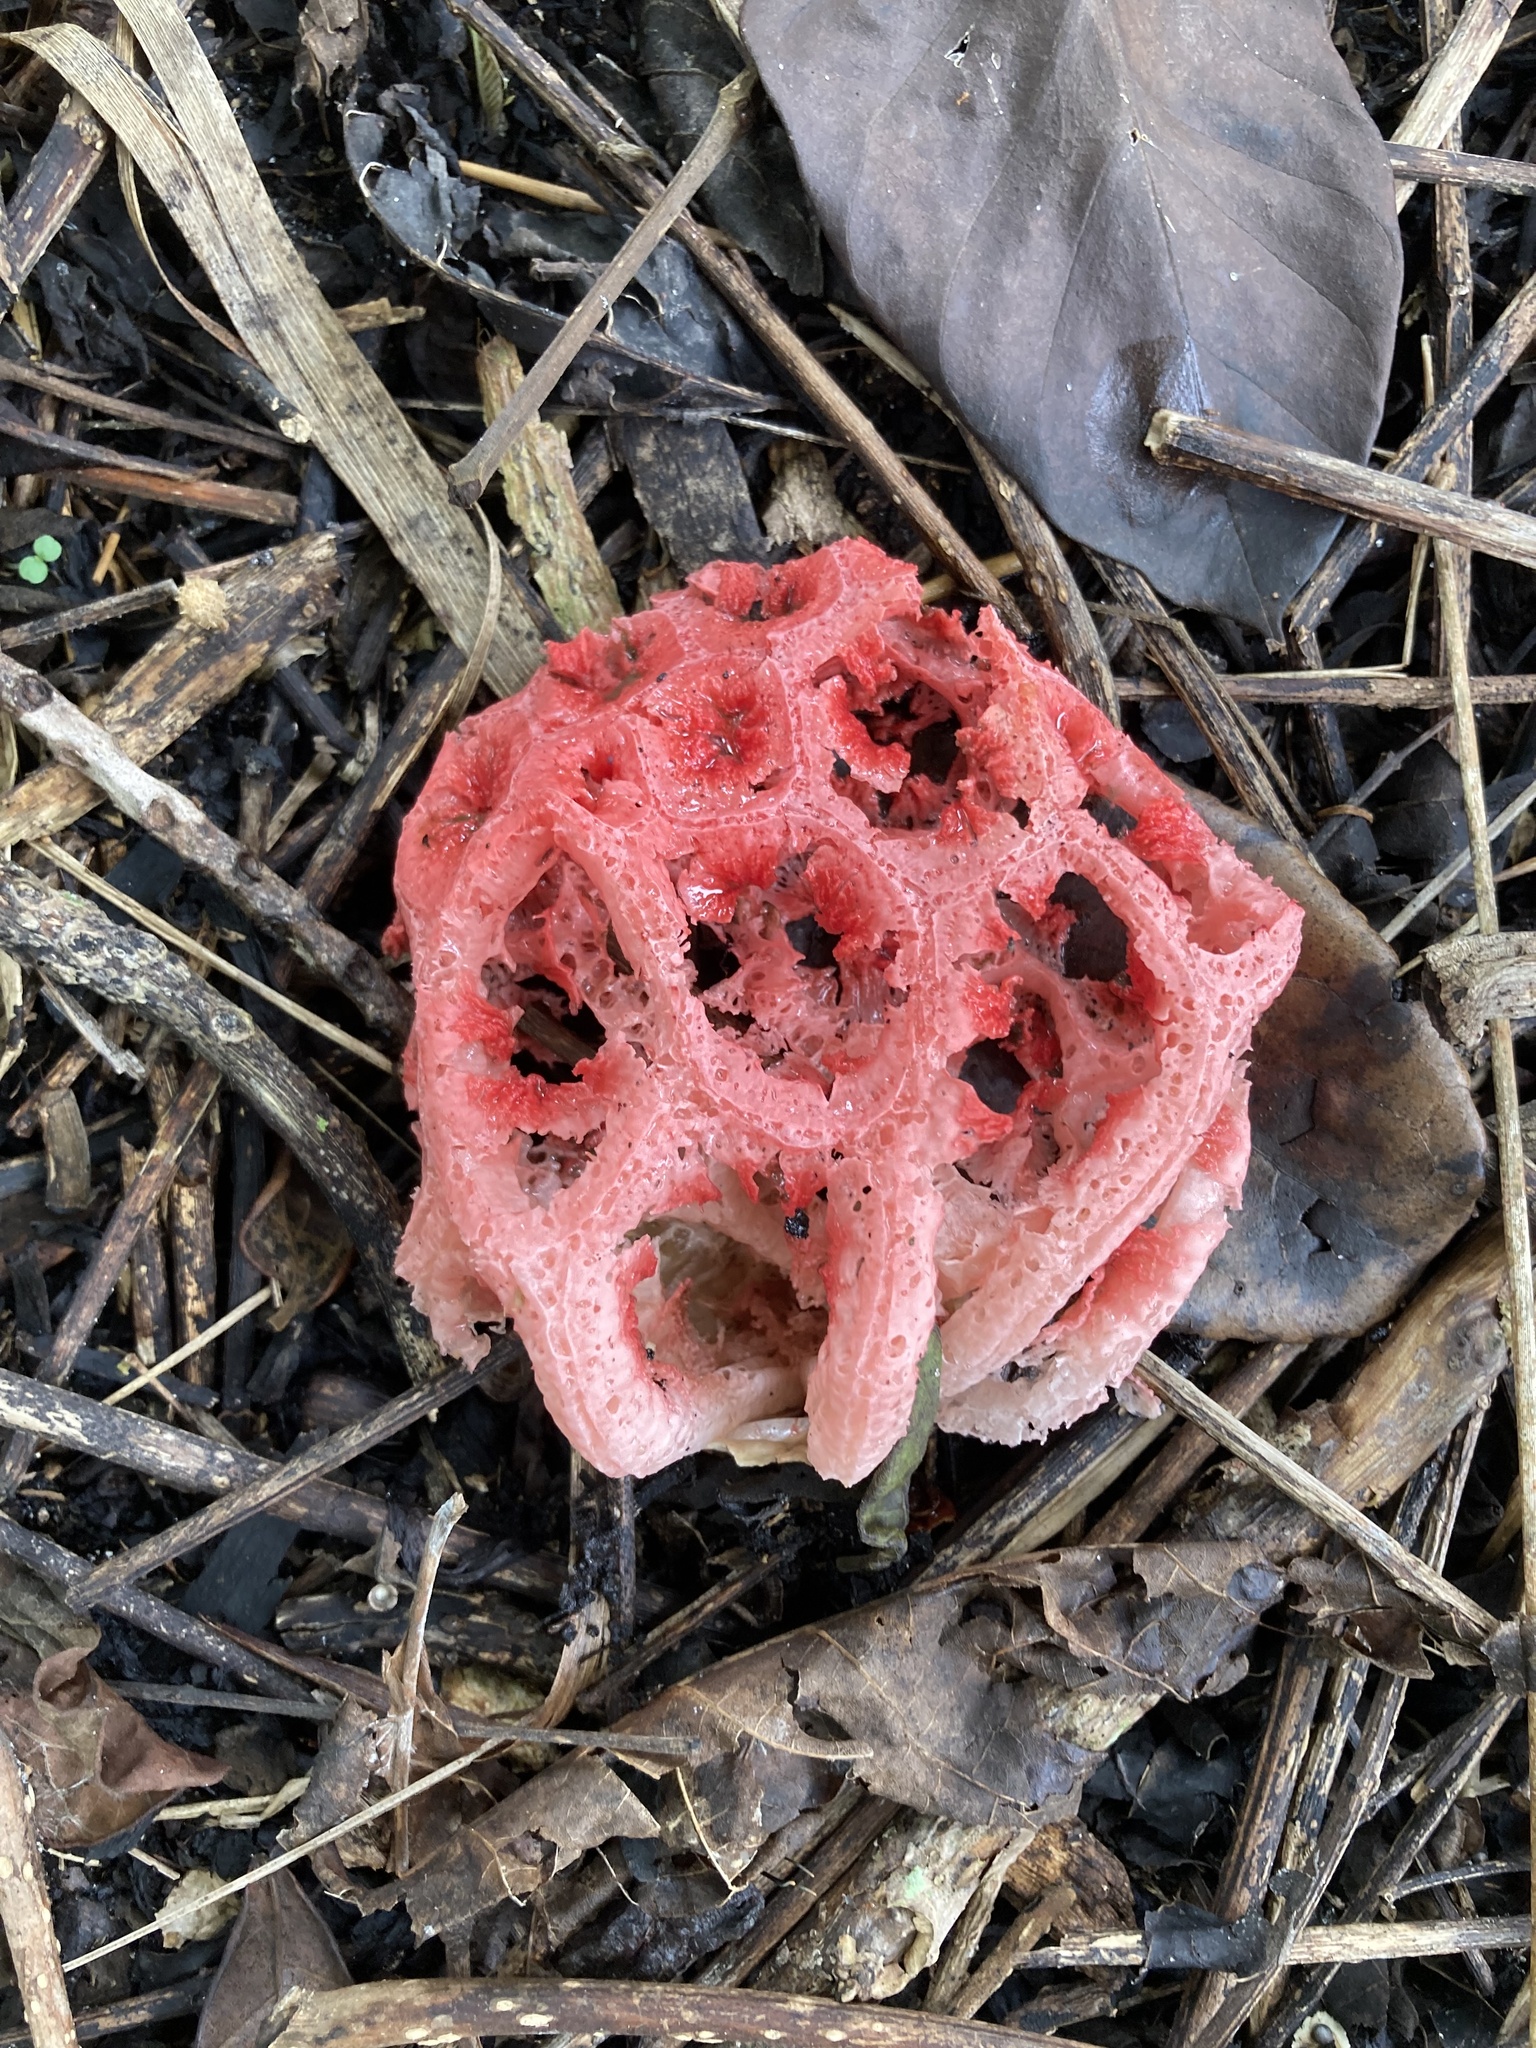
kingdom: Fungi
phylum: Basidiomycota
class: Agaricomycetes
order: Phallales
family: Phallaceae
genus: Clathrus
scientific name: Clathrus crispatus
